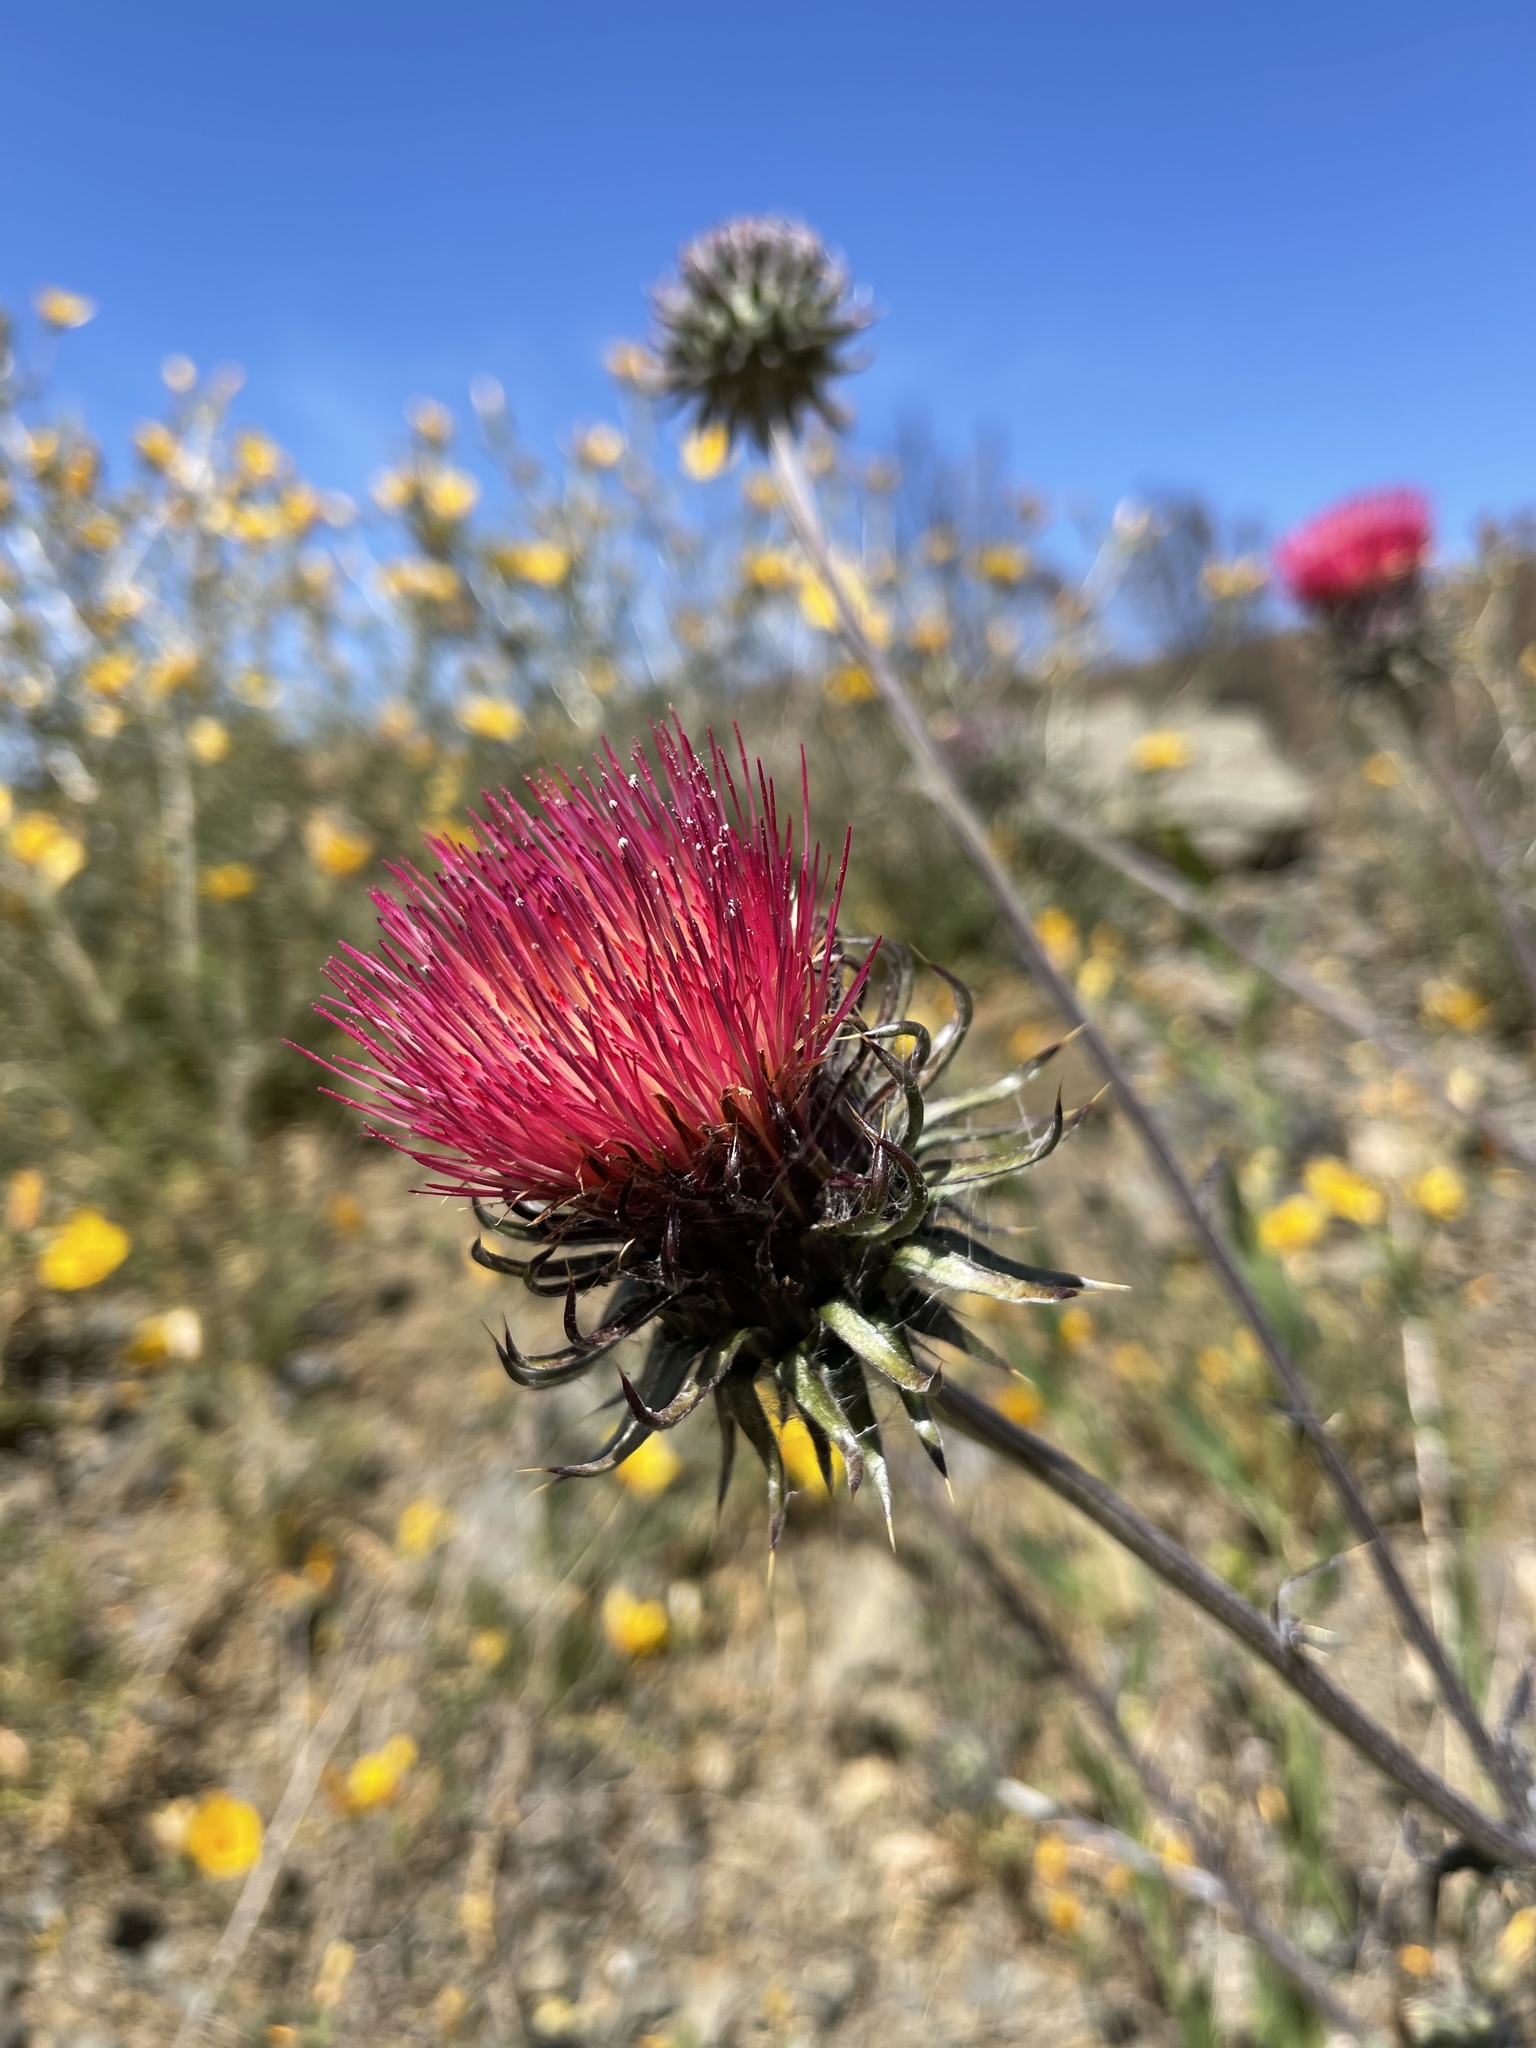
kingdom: Plantae
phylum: Tracheophyta
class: Magnoliopsida
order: Asterales
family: Asteraceae
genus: Cirsium
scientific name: Cirsium occidentale
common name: Western thistle
